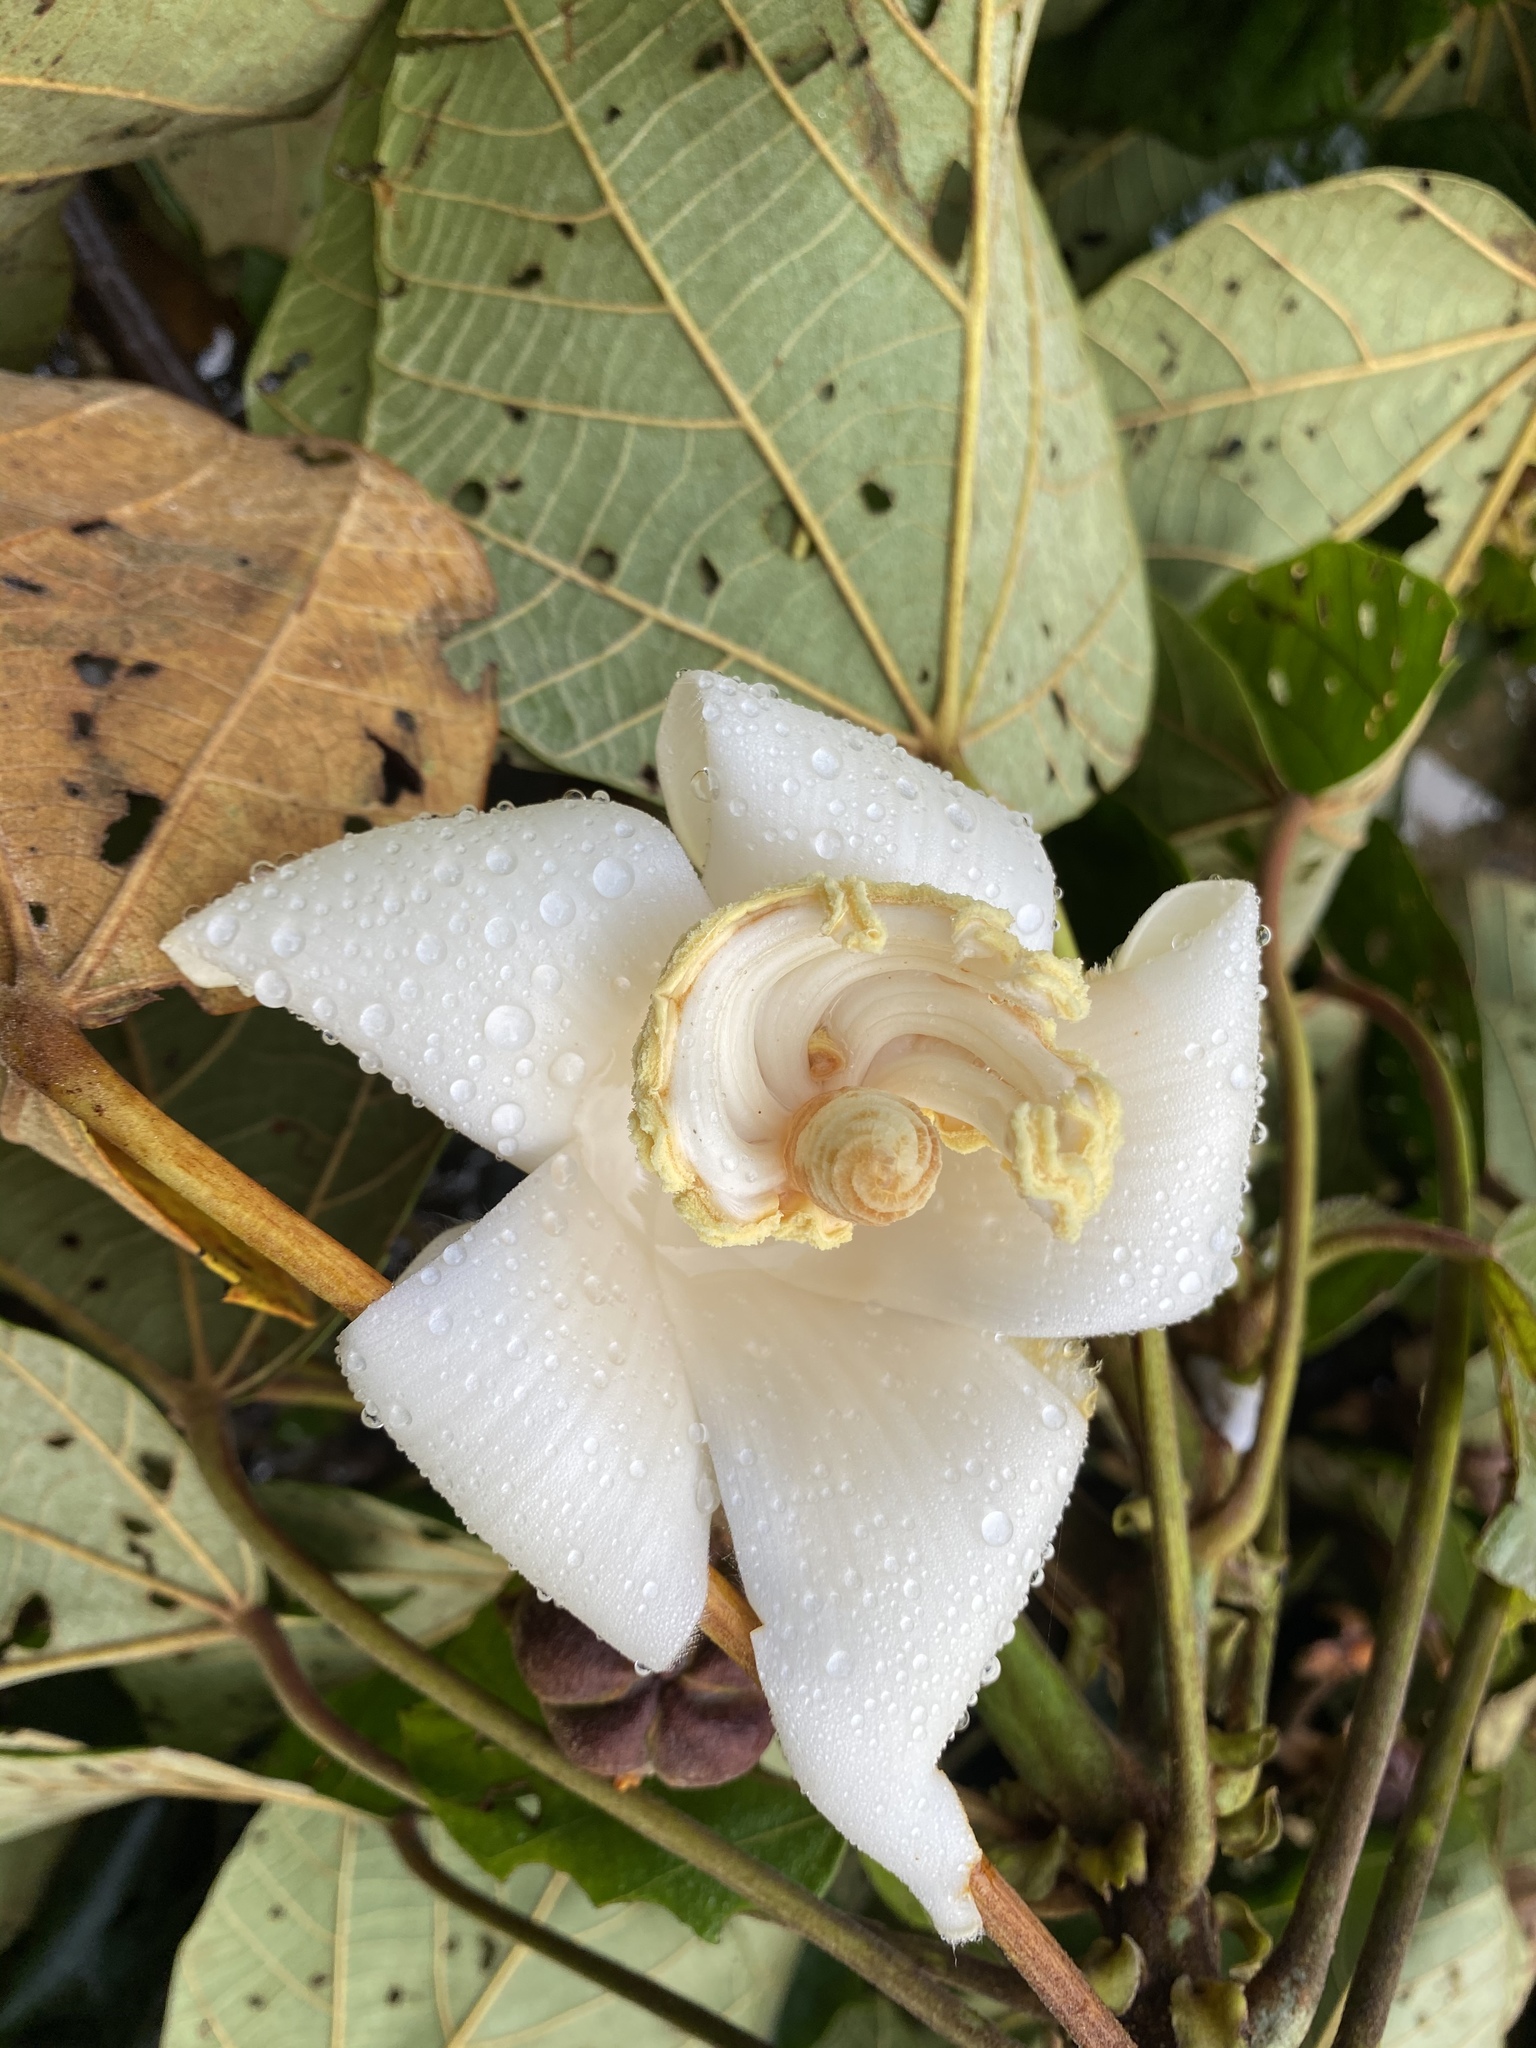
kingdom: Plantae
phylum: Tracheophyta
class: Magnoliopsida
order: Malvales
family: Malvaceae
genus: Ochroma
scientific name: Ochroma pyramidale
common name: Balsa
